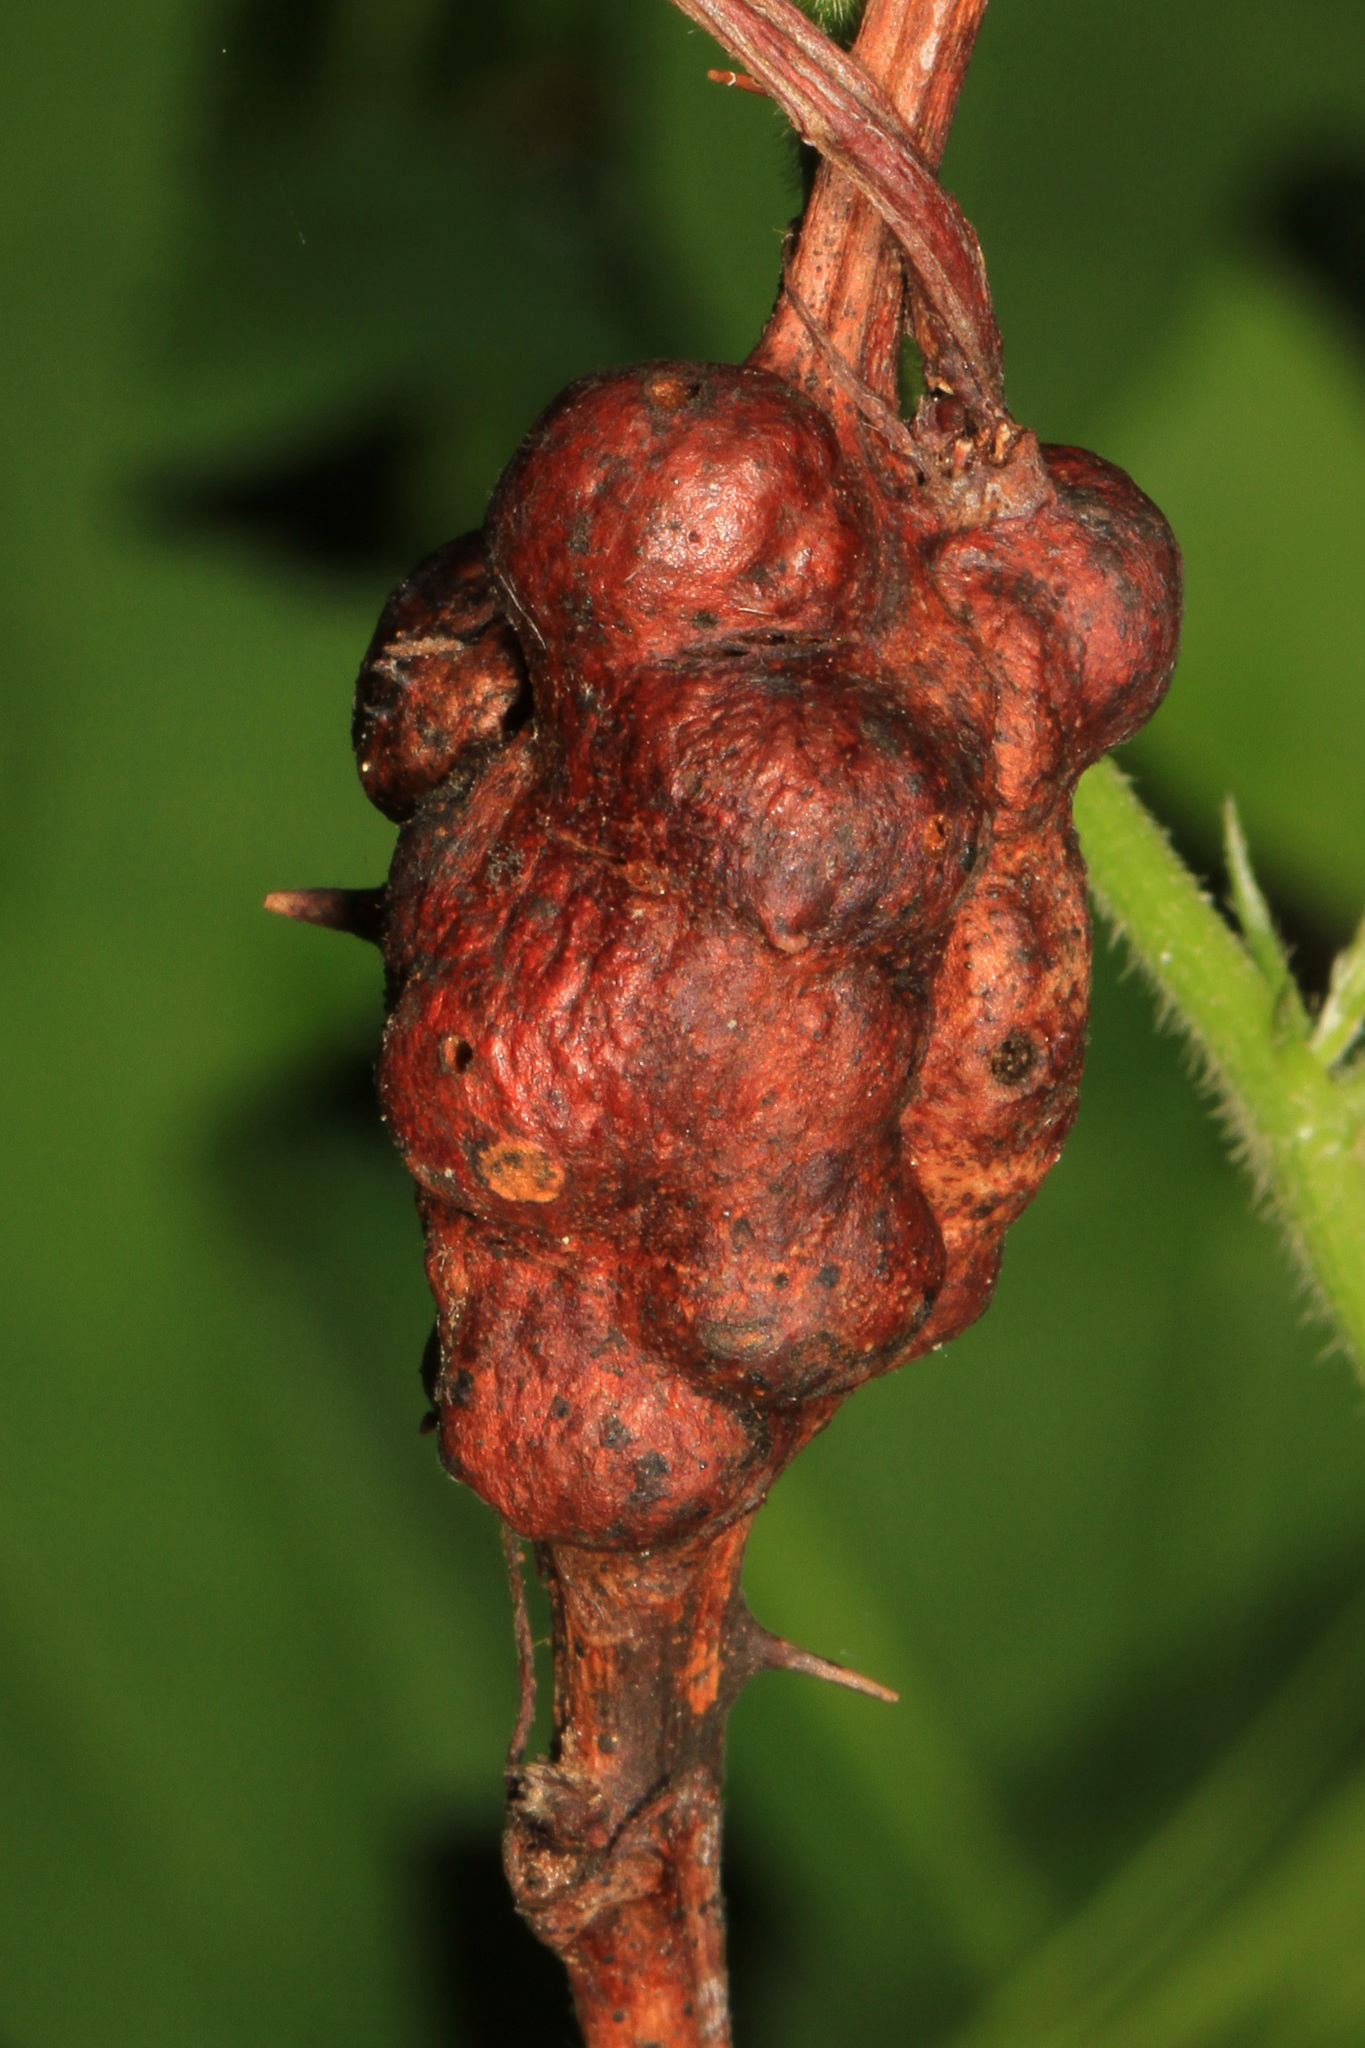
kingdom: Animalia
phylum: Arthropoda
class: Insecta
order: Hymenoptera
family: Cynipidae
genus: Diastrophus
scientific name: Diastrophus
